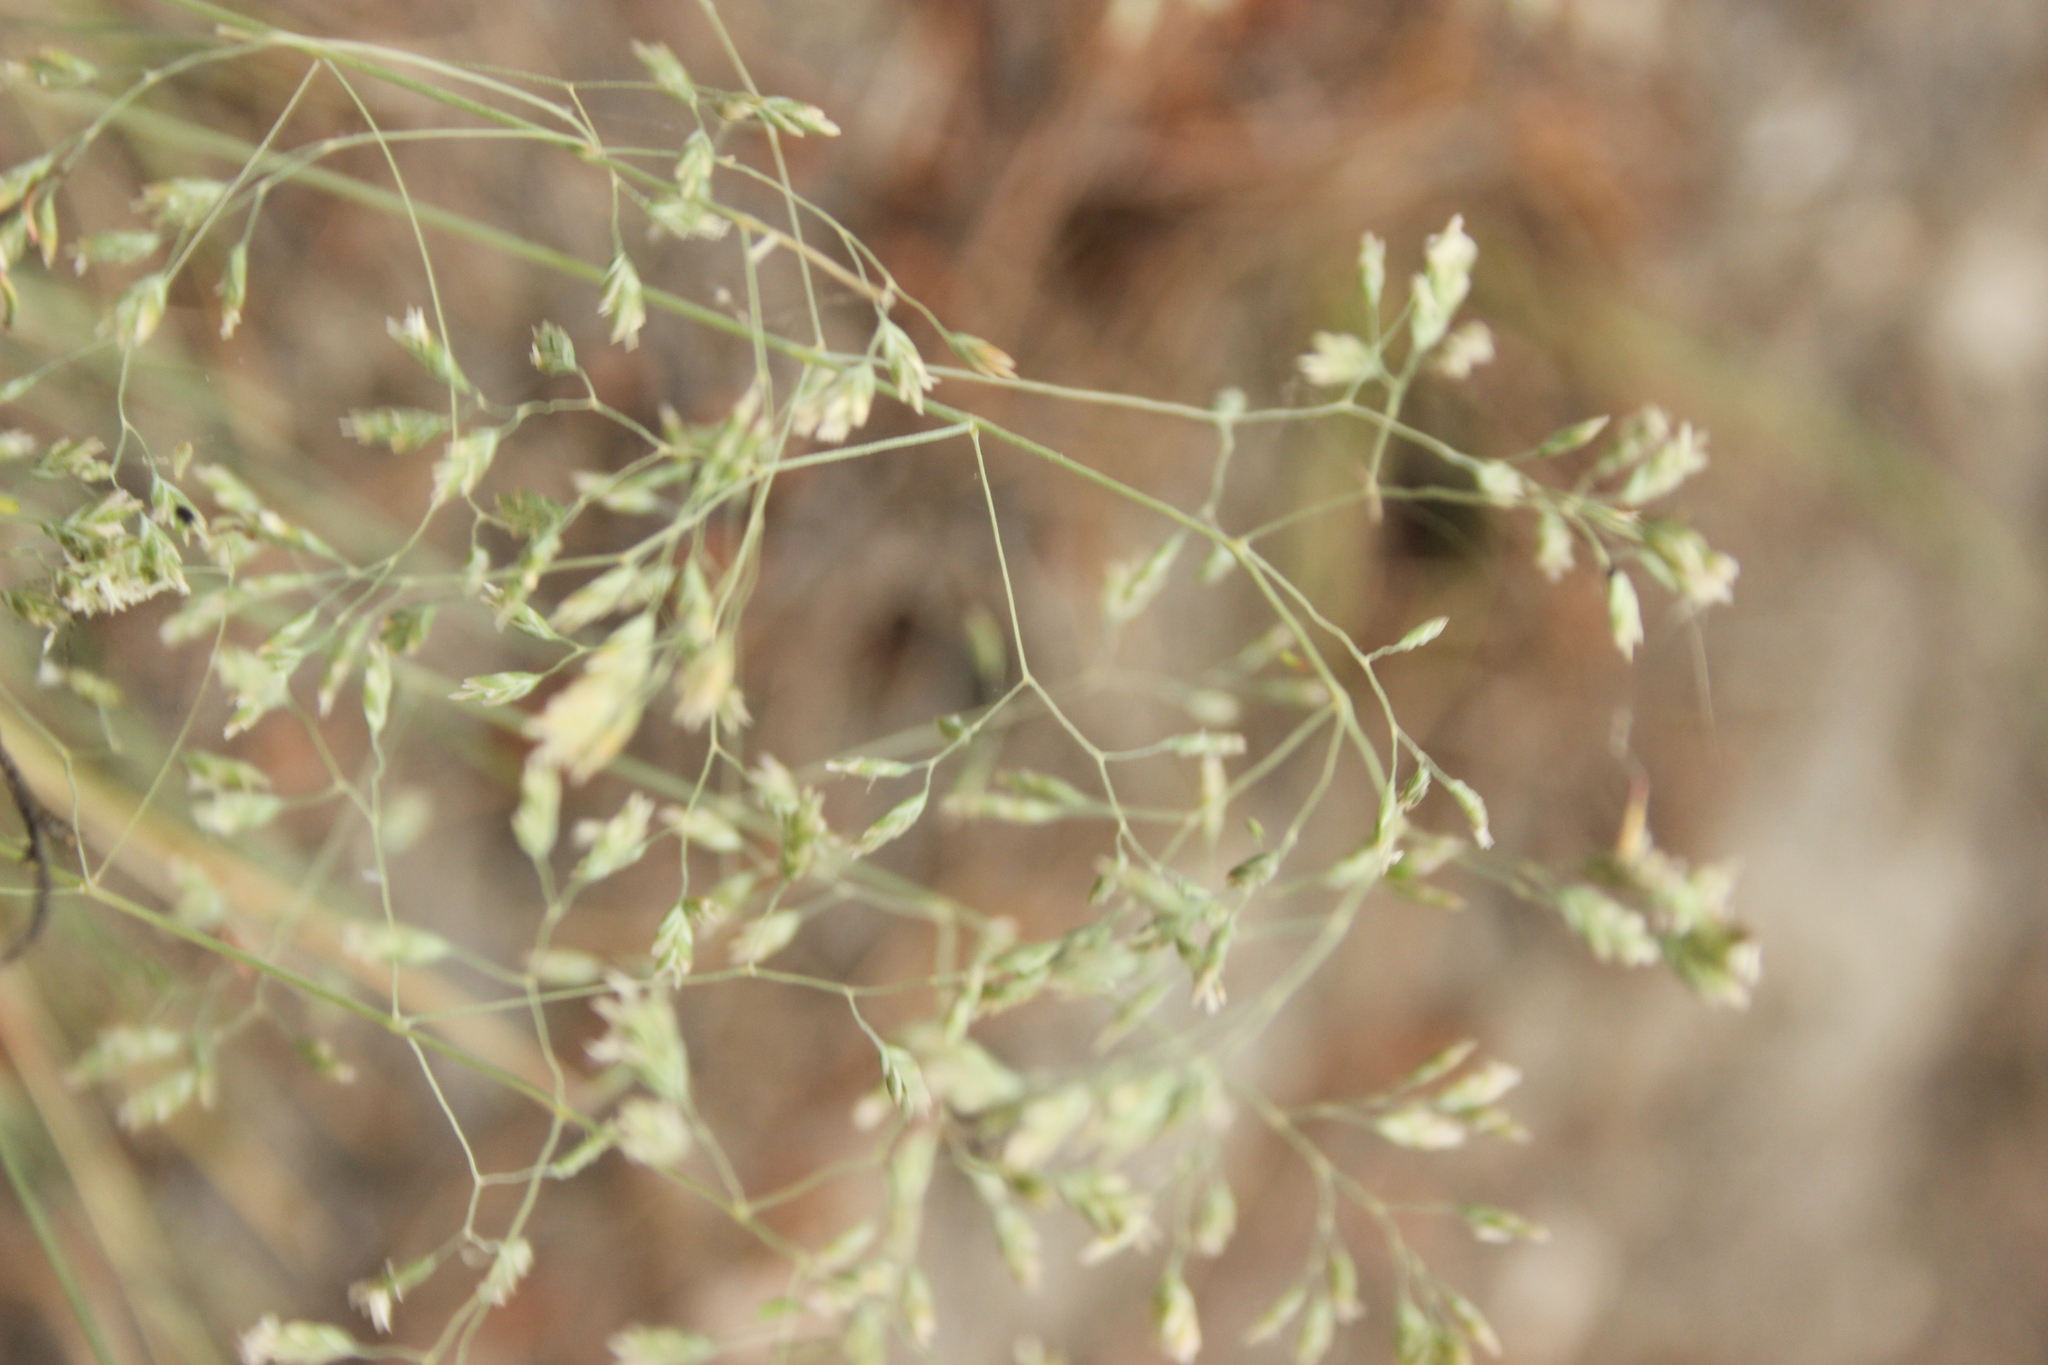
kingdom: Plantae
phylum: Tracheophyta
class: Liliopsida
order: Poales
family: Poaceae
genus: Poa
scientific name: Poa colensoi
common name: Blue tussock
